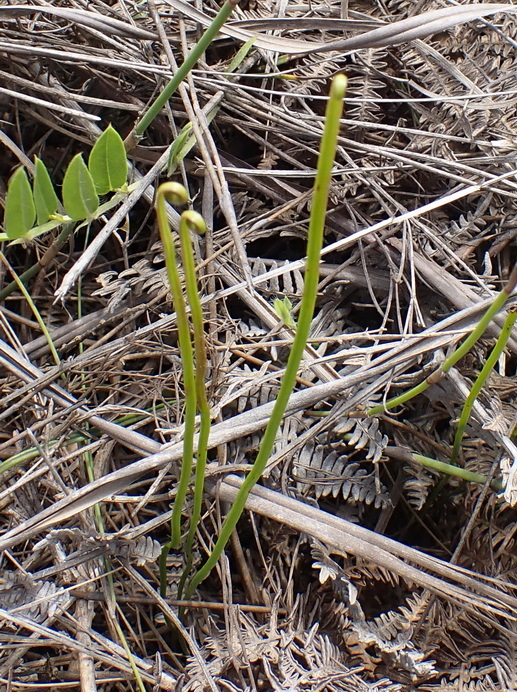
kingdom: Plantae
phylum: Tracheophyta
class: Polypodiopsida
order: Schizaeales
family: Schizaeaceae
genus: Schizaea
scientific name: Schizaea pectinata
